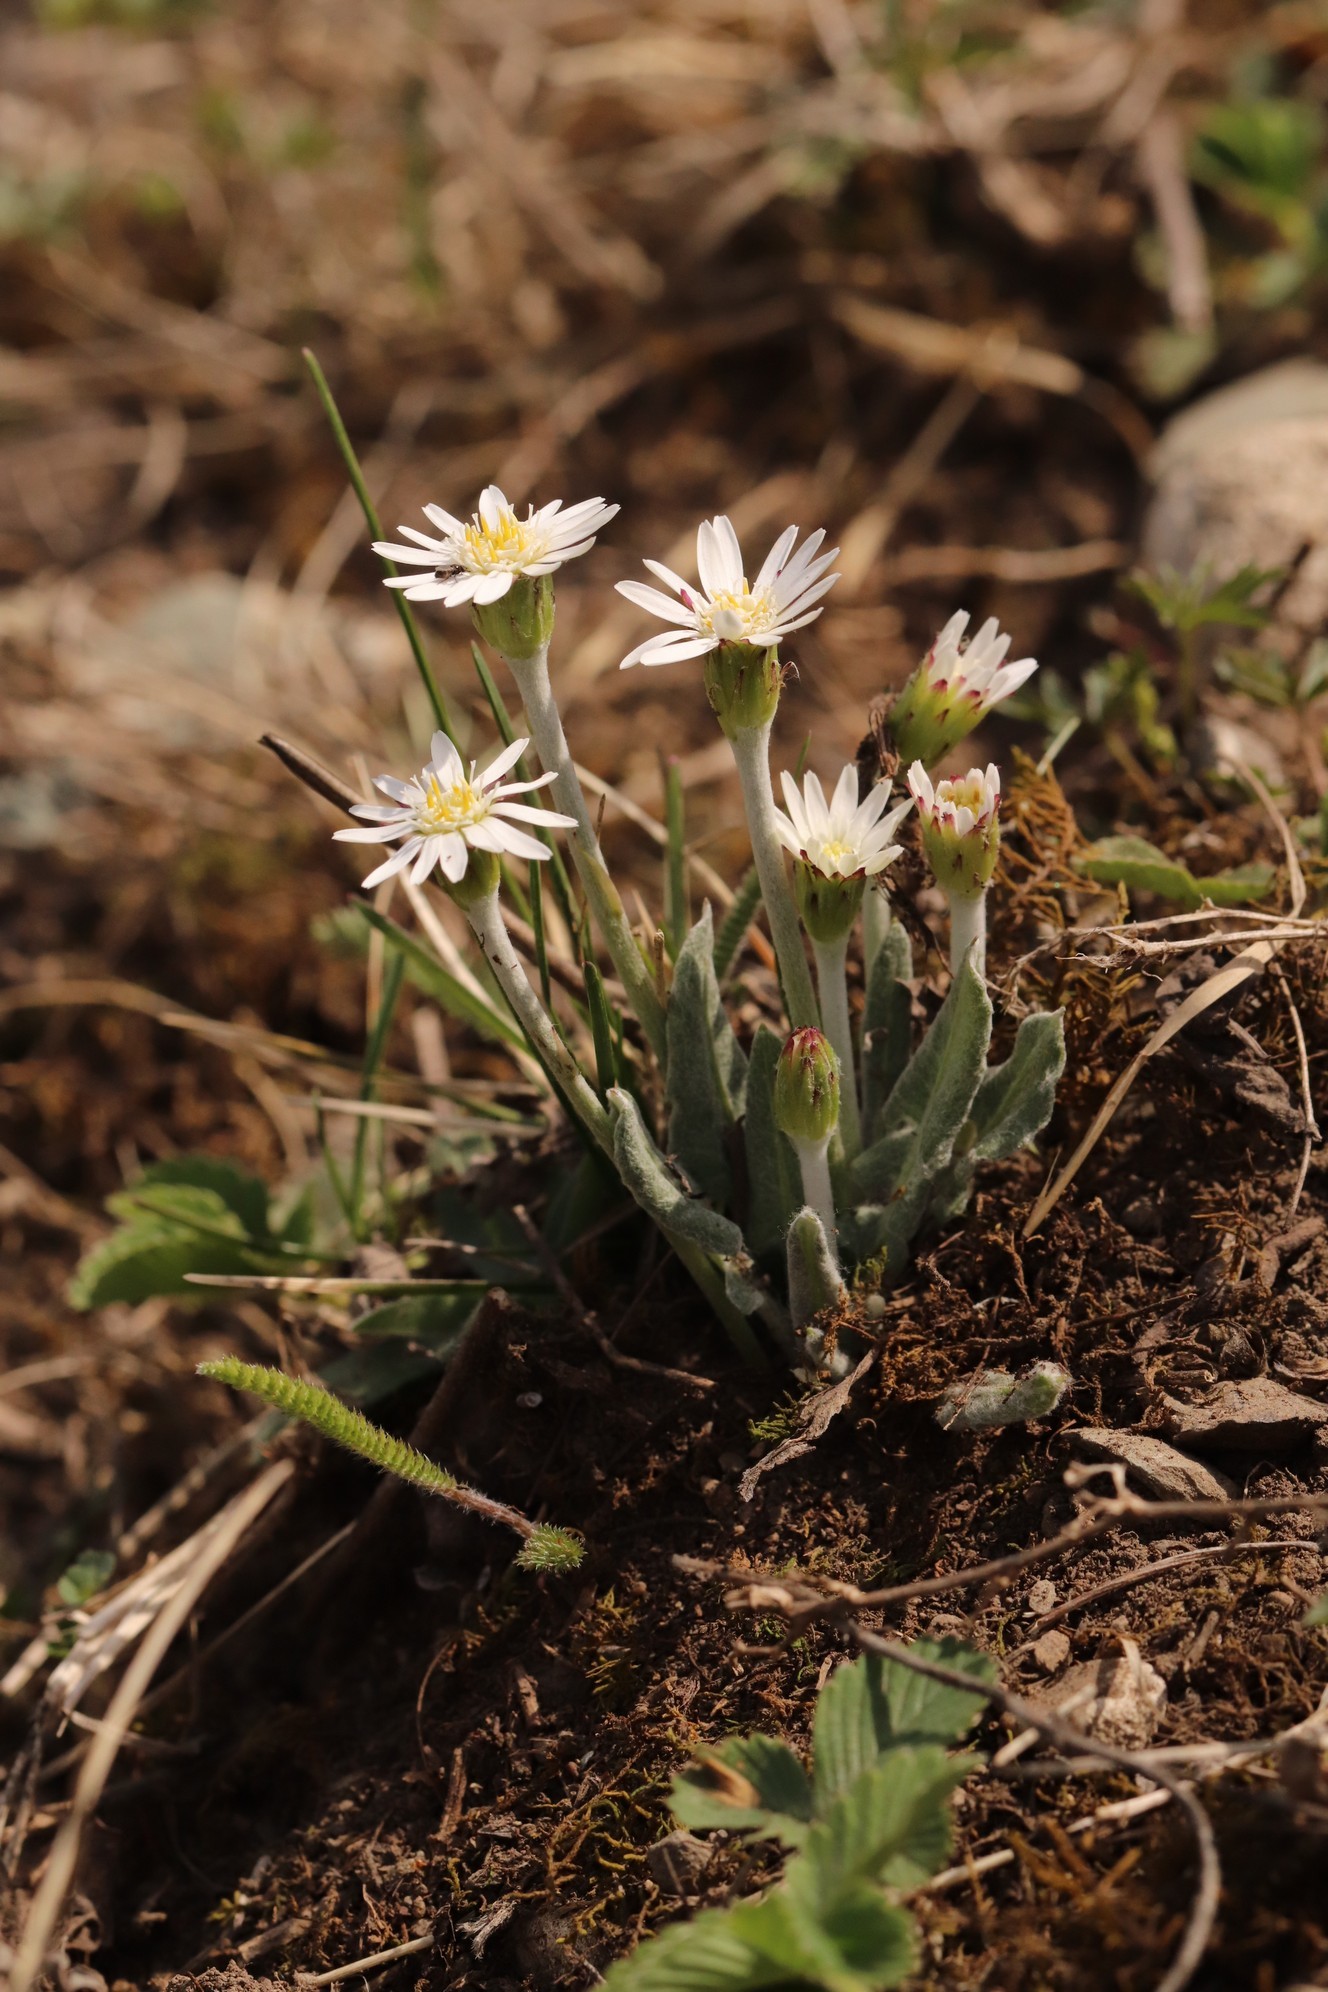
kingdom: Plantae
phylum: Tracheophyta
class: Magnoliopsida
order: Asterales
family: Asteraceae
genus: Leibnitzia
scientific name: Leibnitzia anandria
